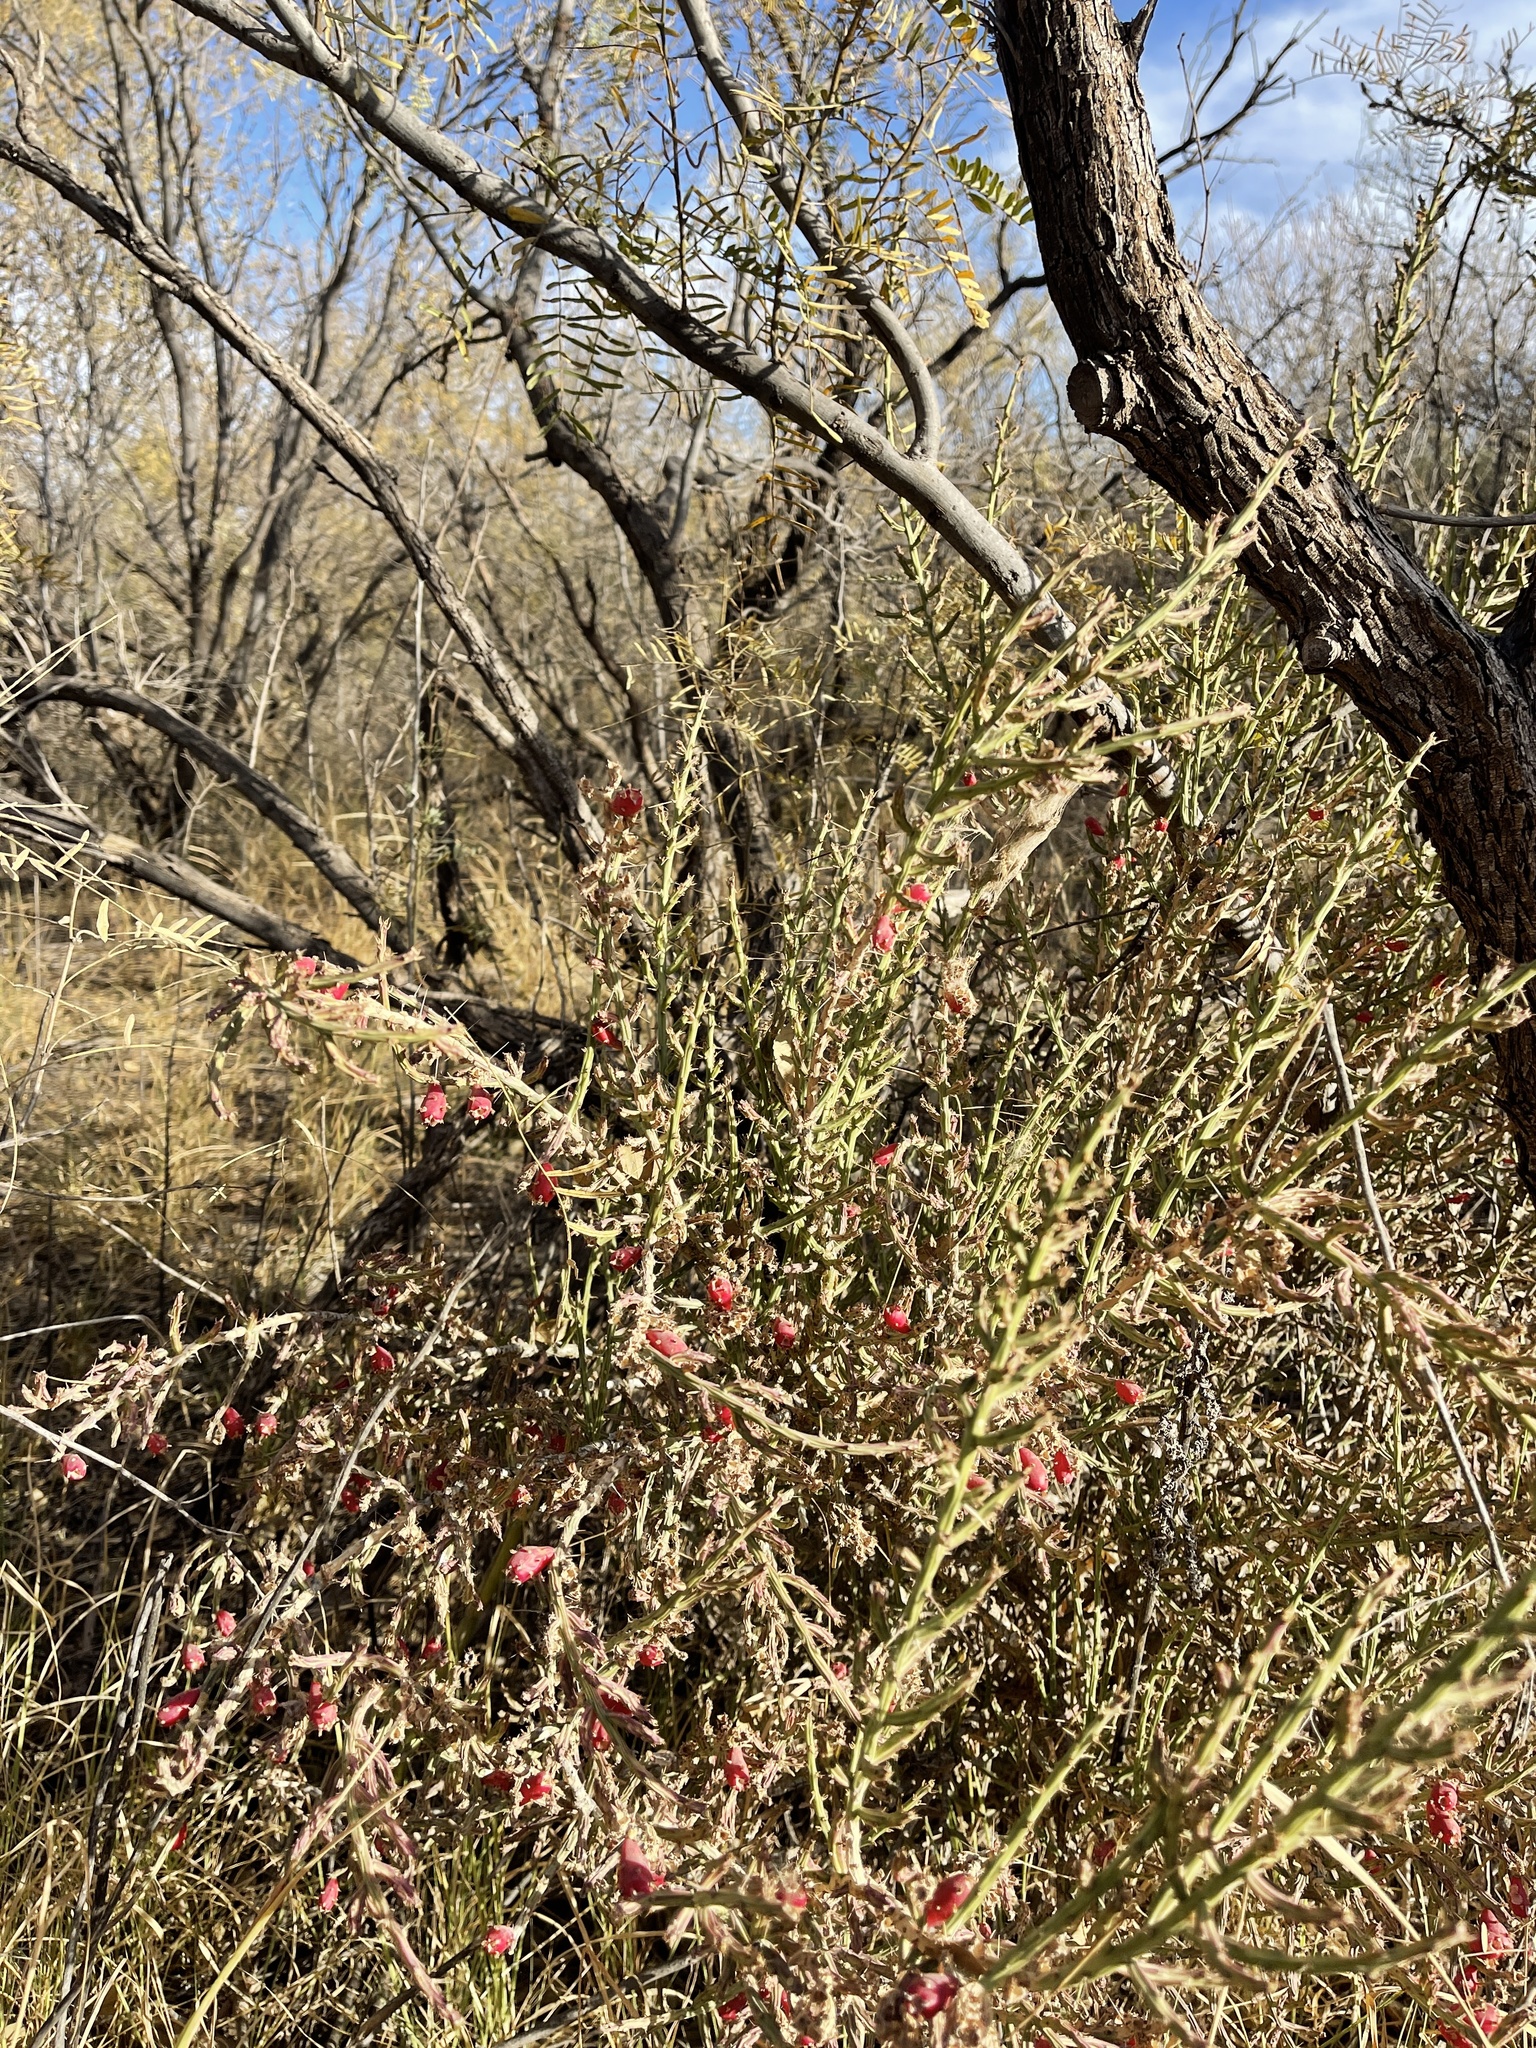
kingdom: Plantae
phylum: Tracheophyta
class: Magnoliopsida
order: Caryophyllales
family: Cactaceae
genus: Cylindropuntia
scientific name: Cylindropuntia leptocaulis
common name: Christmas cactus
